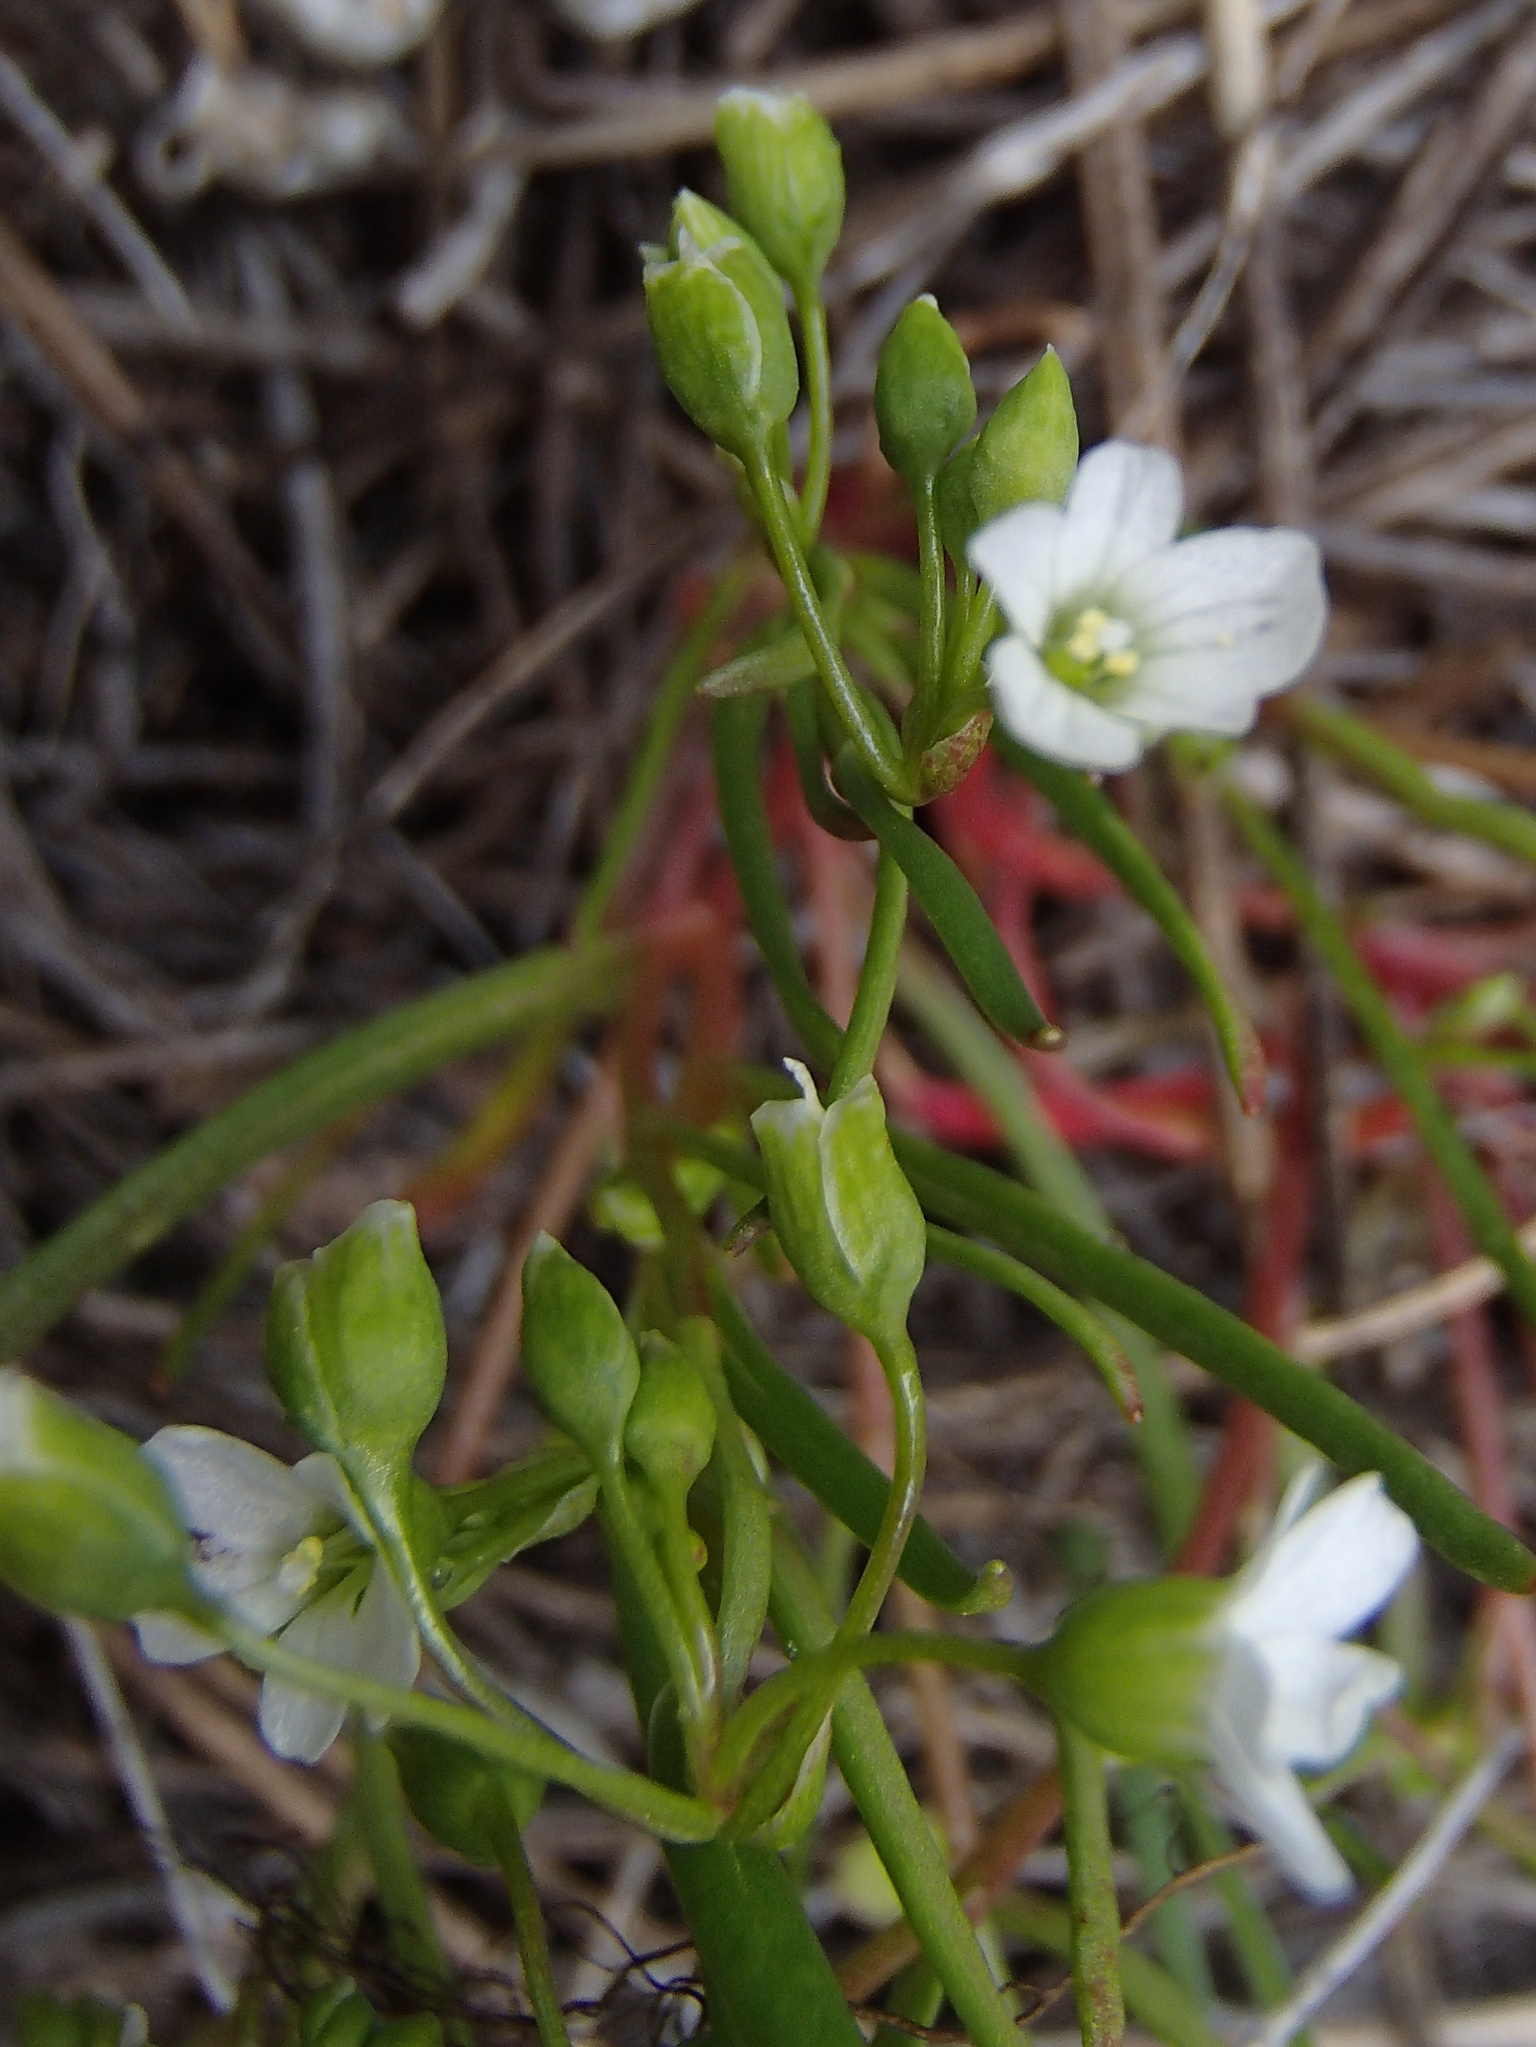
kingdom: Plantae
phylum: Tracheophyta
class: Magnoliopsida
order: Caryophyllales
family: Montiaceae
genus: Montia
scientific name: Montia linearis
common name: Narrow-leaf montia
